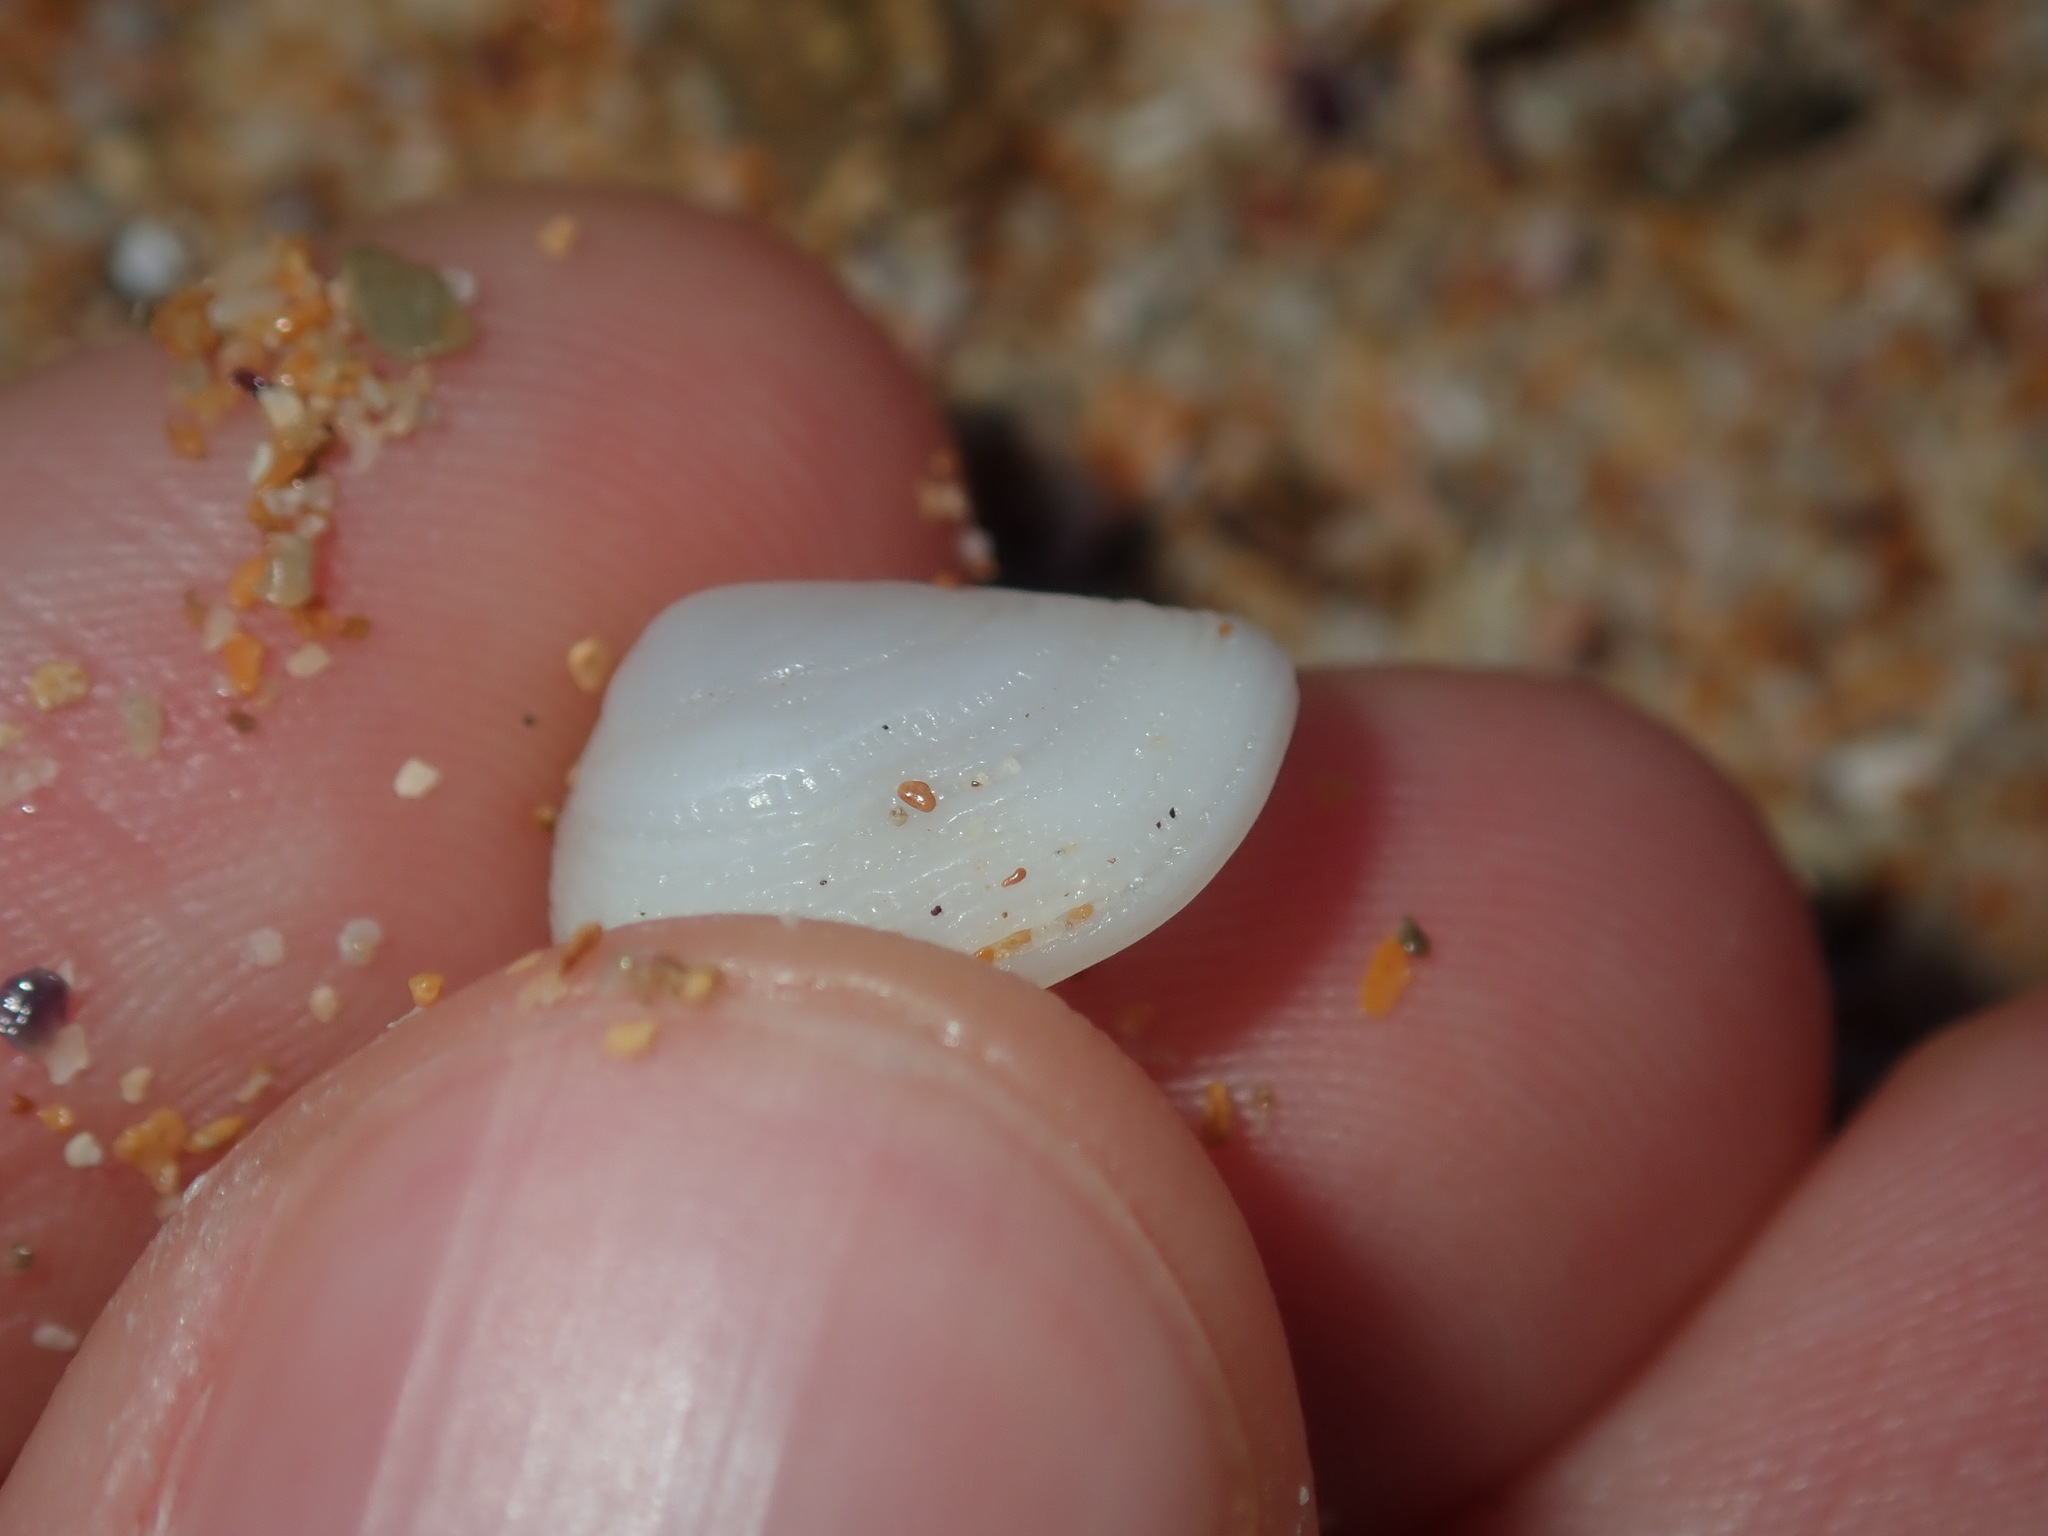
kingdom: Animalia
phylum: Mollusca
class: Gastropoda
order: Littorinimorpha
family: Hipponicidae
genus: Antisabia
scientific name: Antisabia foliacea
